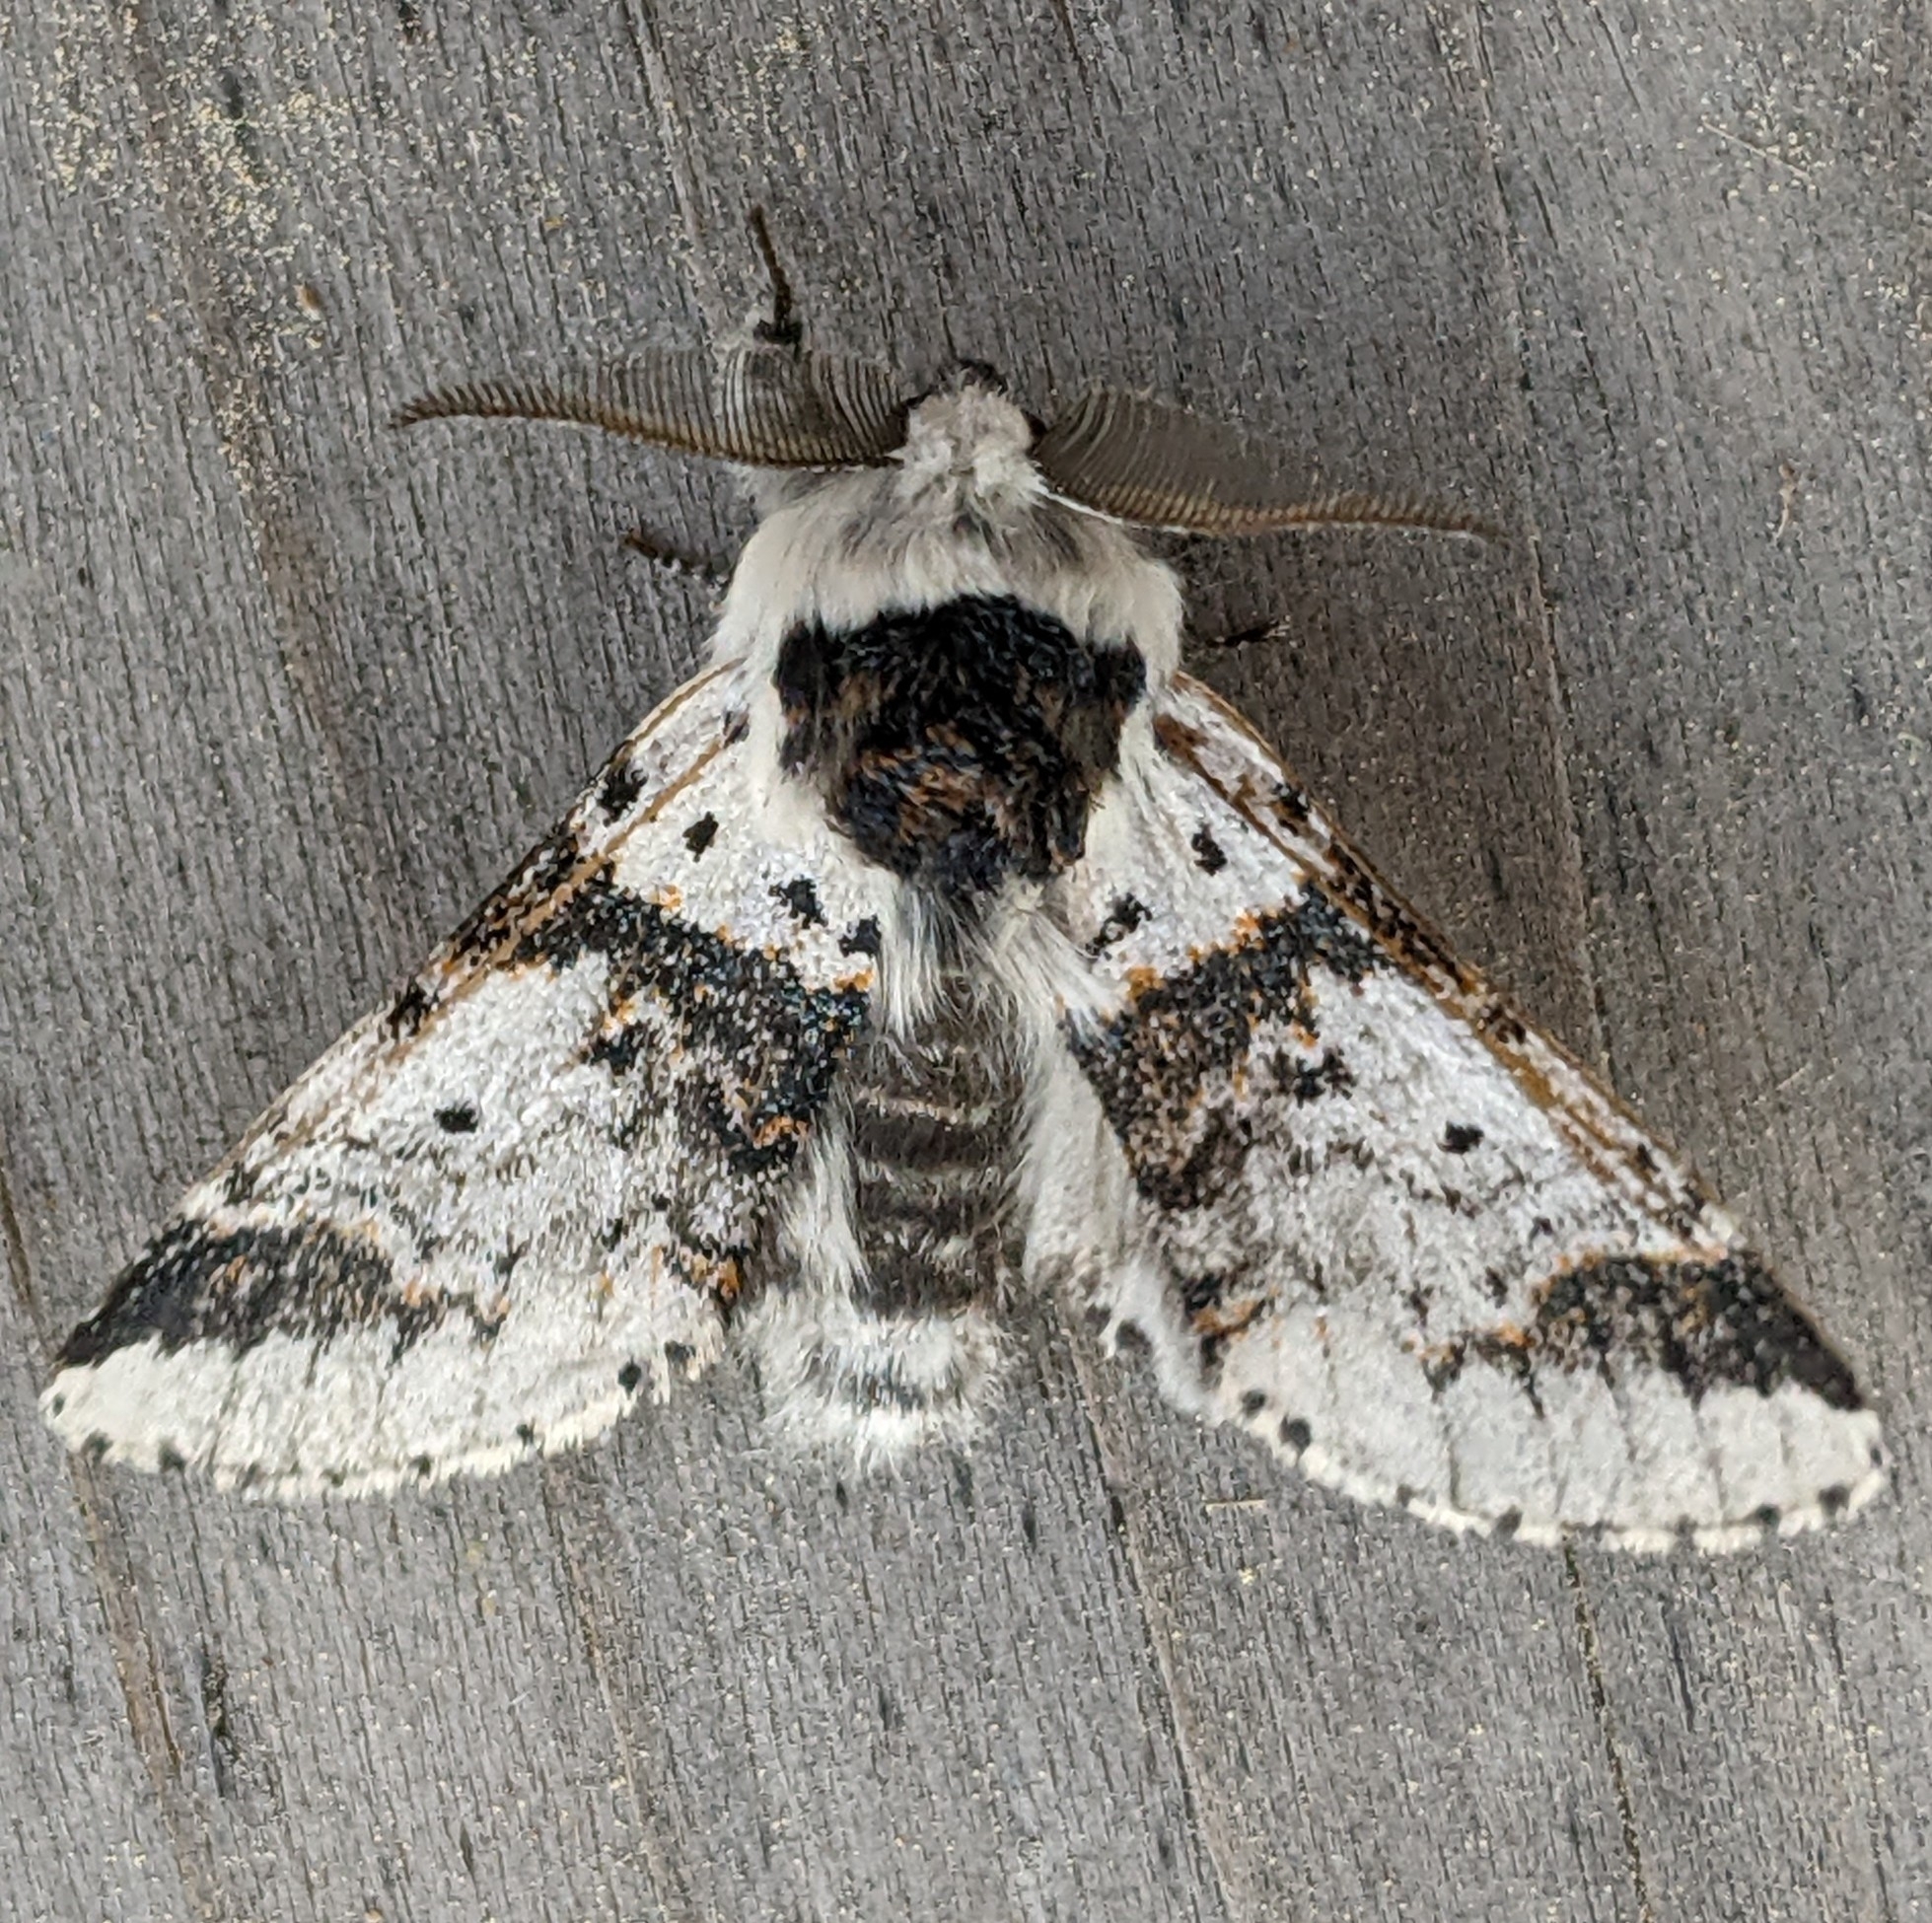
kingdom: Animalia
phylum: Arthropoda
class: Insecta
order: Lepidoptera
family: Notodontidae
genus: Furcula
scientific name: Furcula scolopendrina
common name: Zigzag furcula moth
